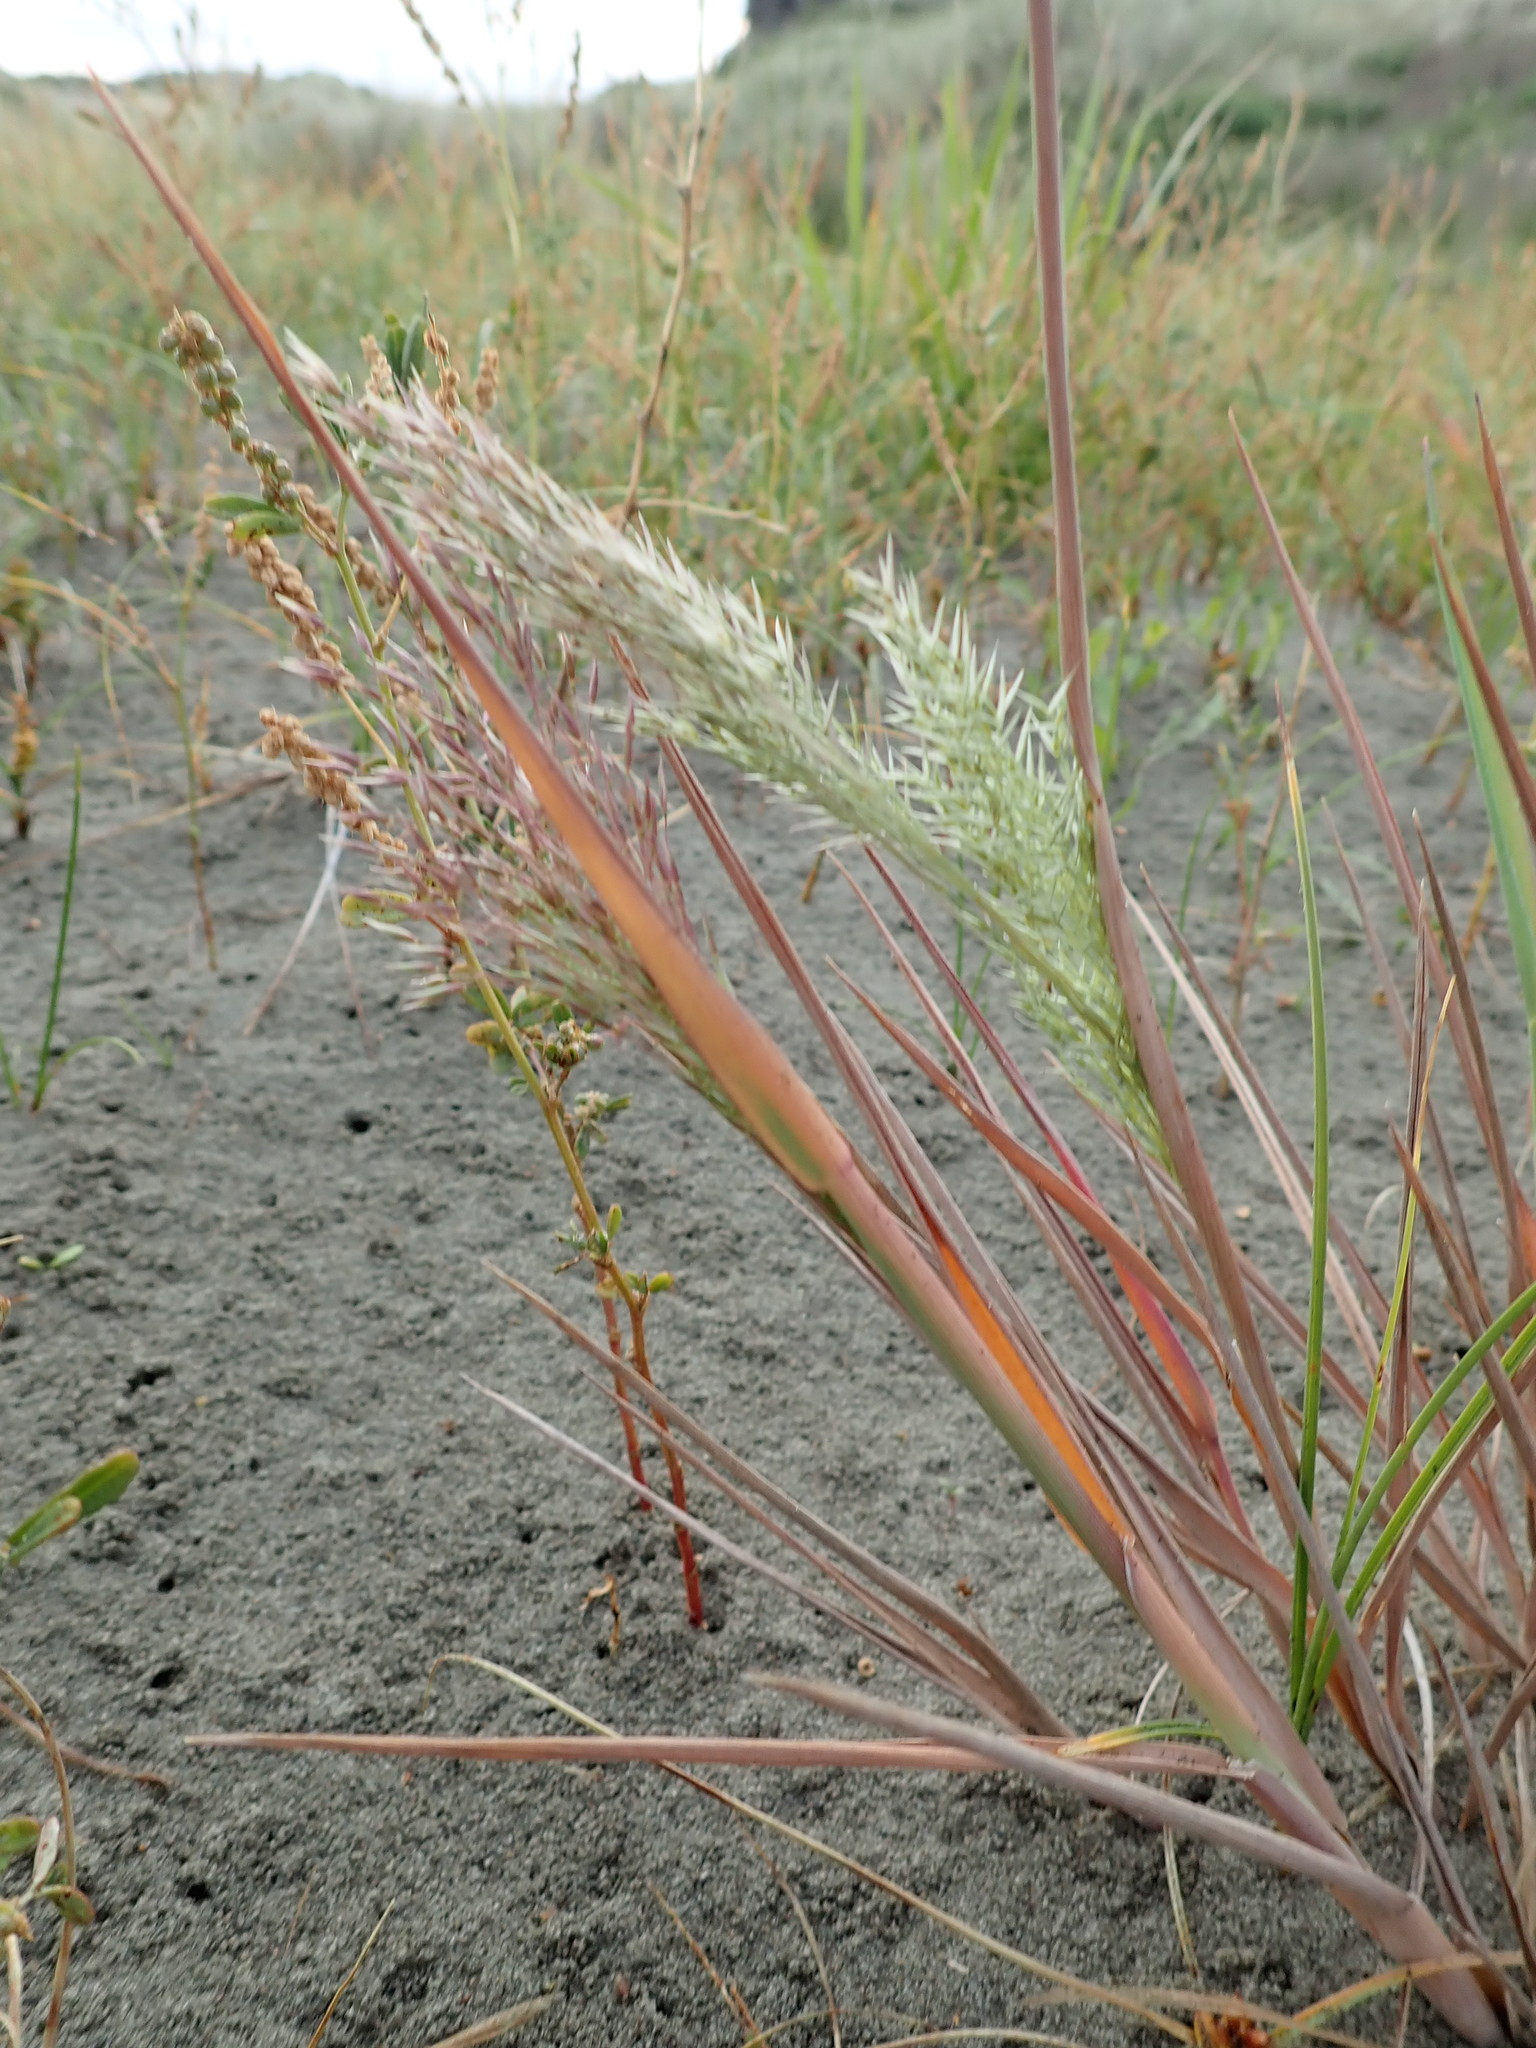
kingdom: Plantae
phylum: Tracheophyta
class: Liliopsida
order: Poales
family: Poaceae
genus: Lachnagrostis
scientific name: Lachnagrostis billardierei
